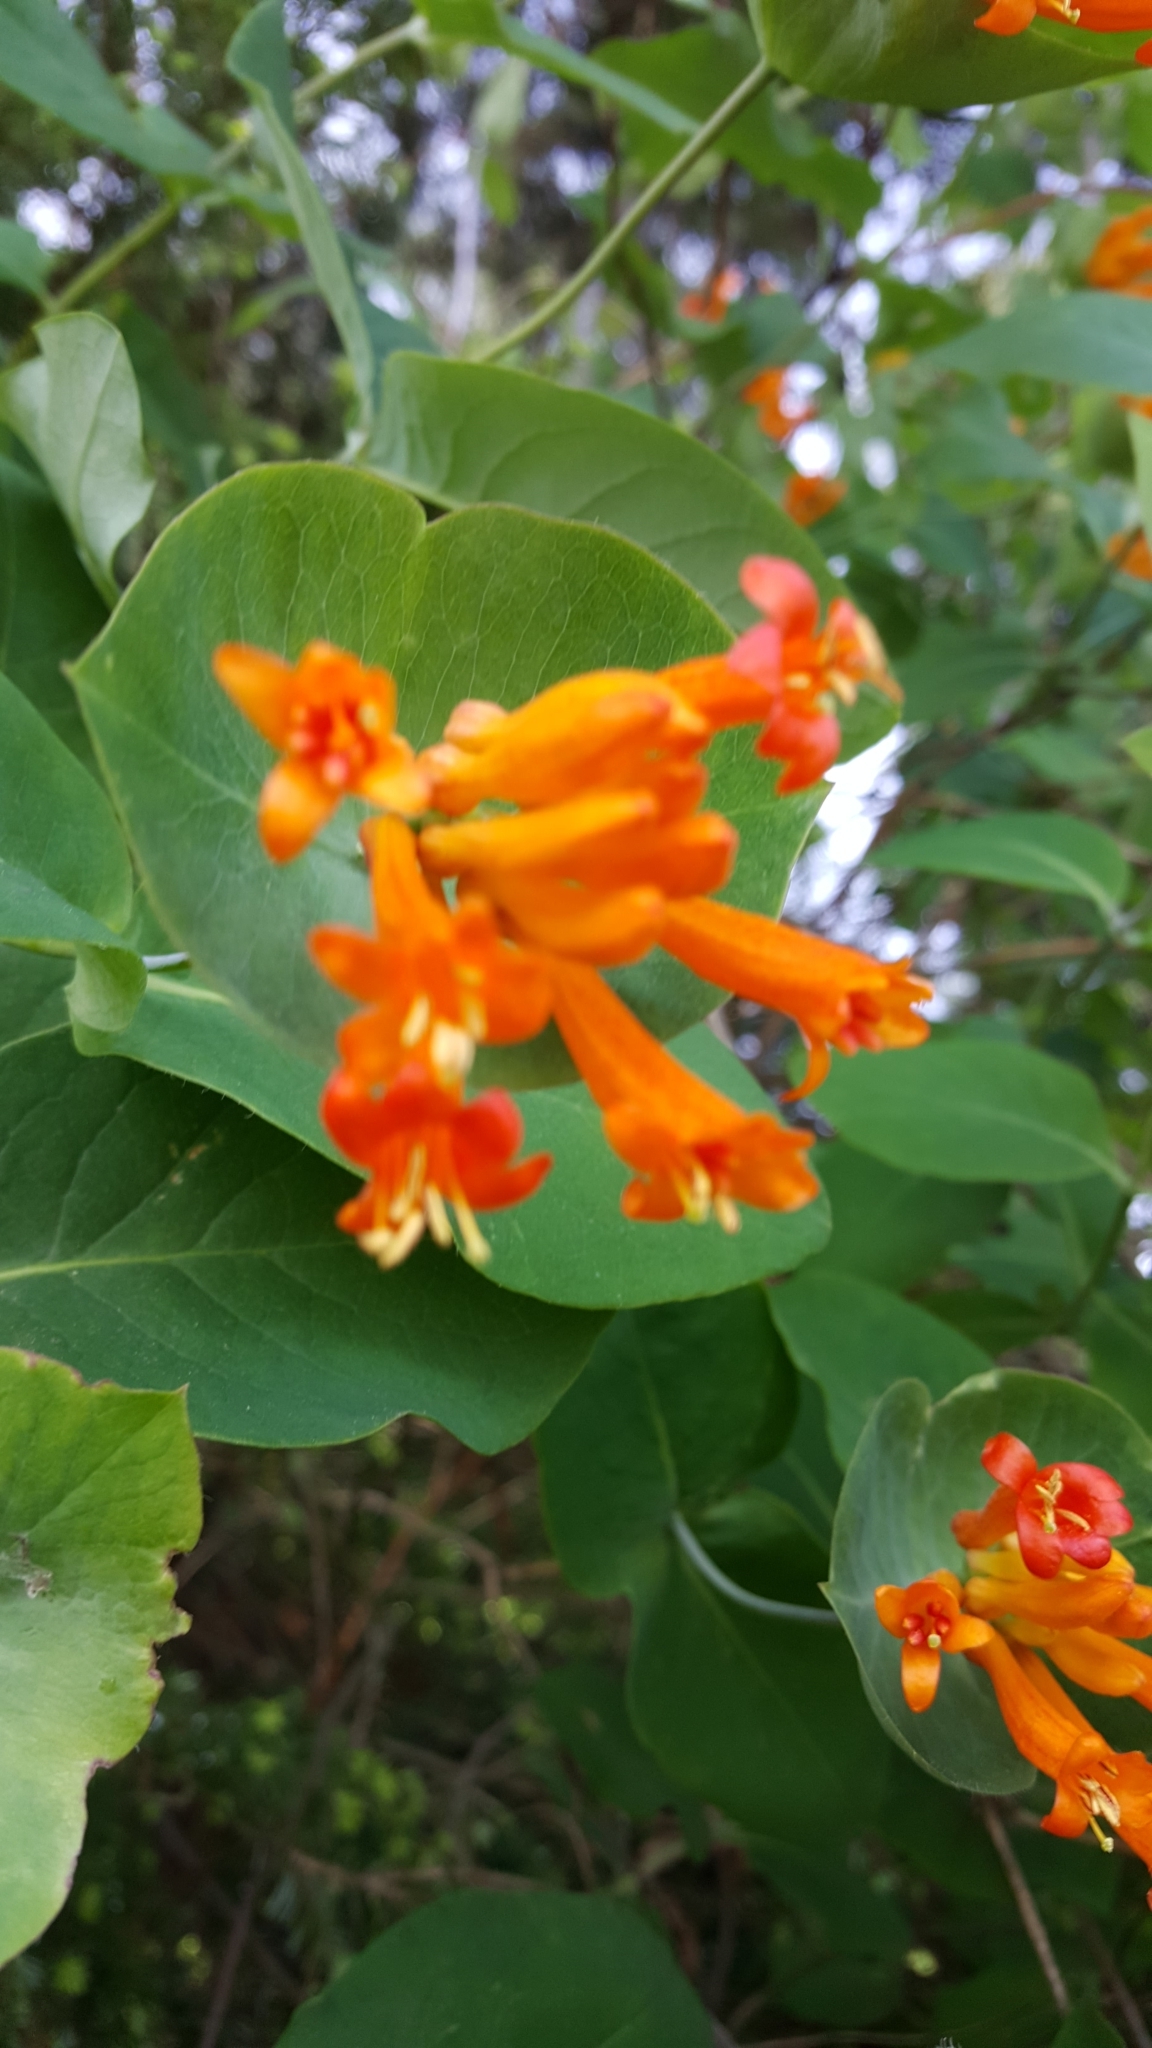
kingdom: Plantae
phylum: Tracheophyta
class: Magnoliopsida
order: Dipsacales
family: Caprifoliaceae
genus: Lonicera
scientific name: Lonicera ciliosa
